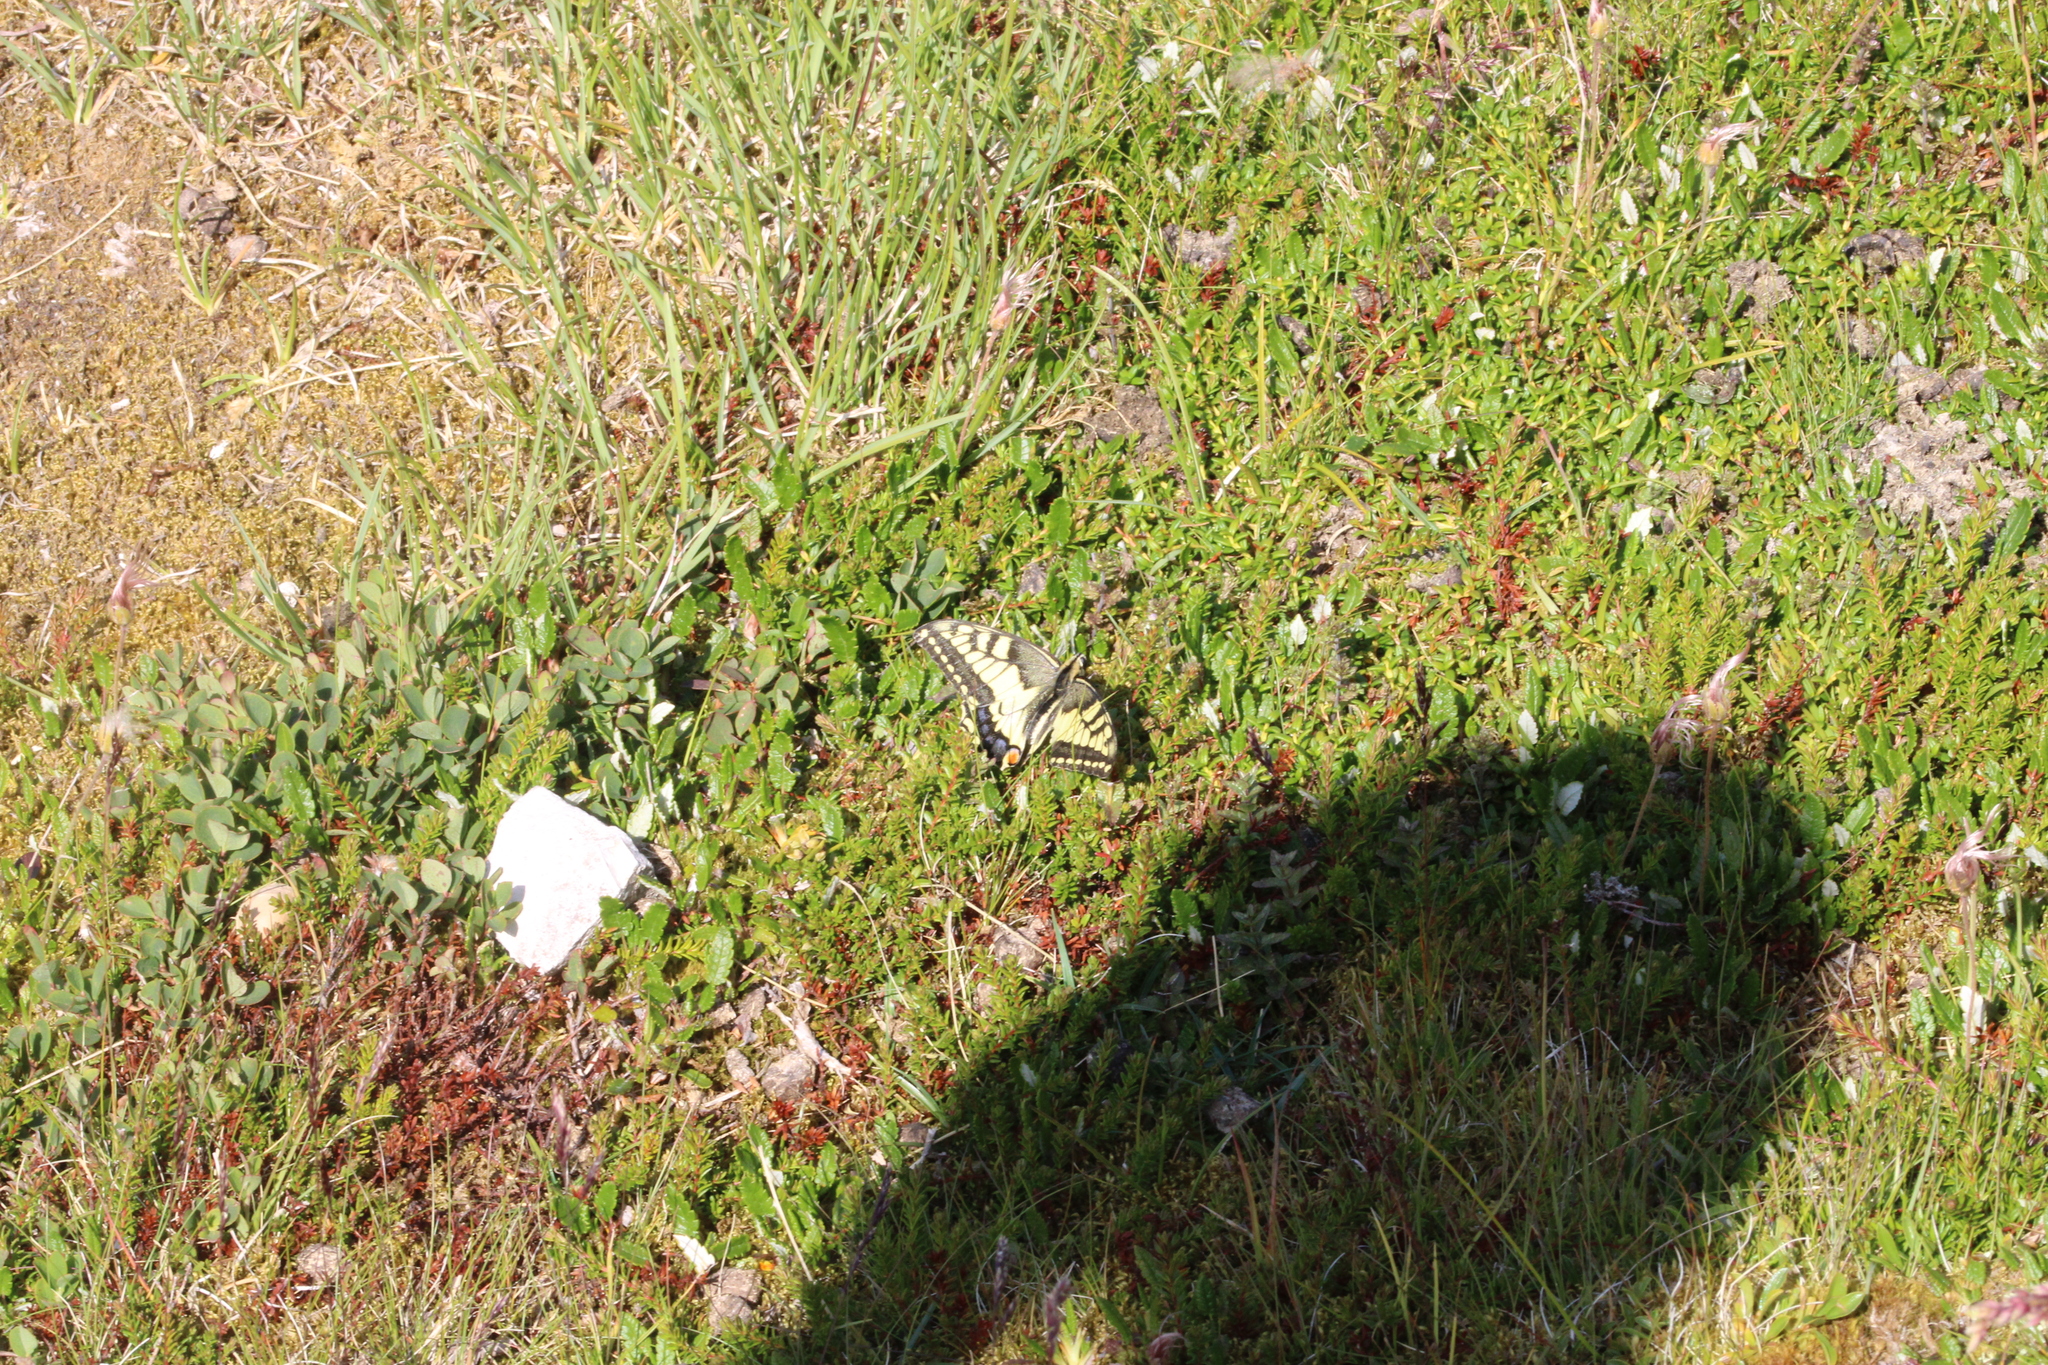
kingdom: Animalia
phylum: Arthropoda
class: Insecta
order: Lepidoptera
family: Papilionidae
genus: Papilio
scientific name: Papilio machaon
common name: Swallowtail
